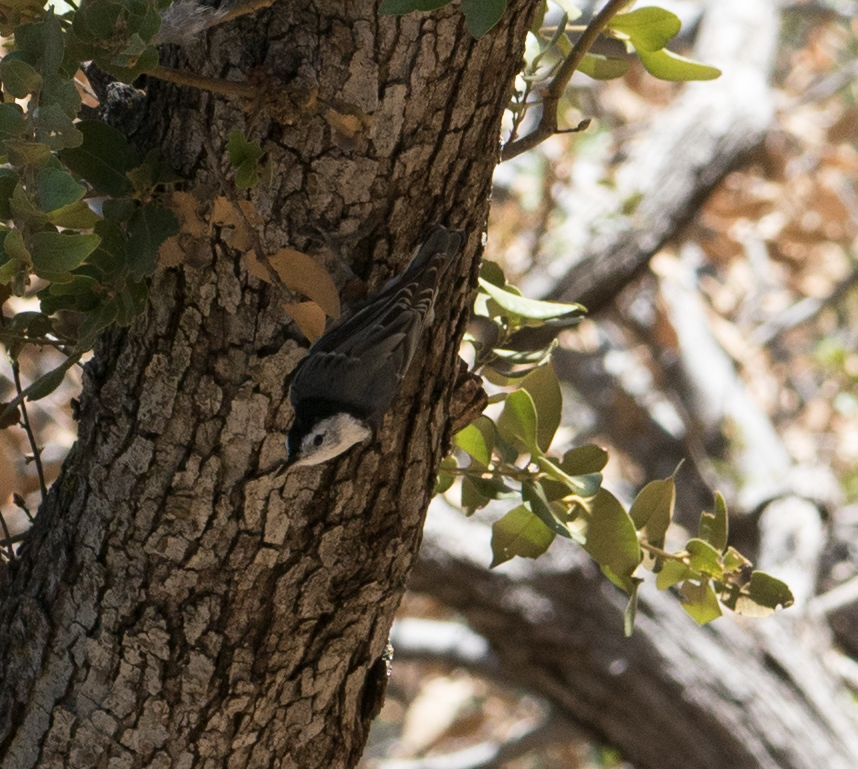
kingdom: Animalia
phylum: Chordata
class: Aves
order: Passeriformes
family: Sittidae
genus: Sitta
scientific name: Sitta carolinensis
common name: White-breasted nuthatch
